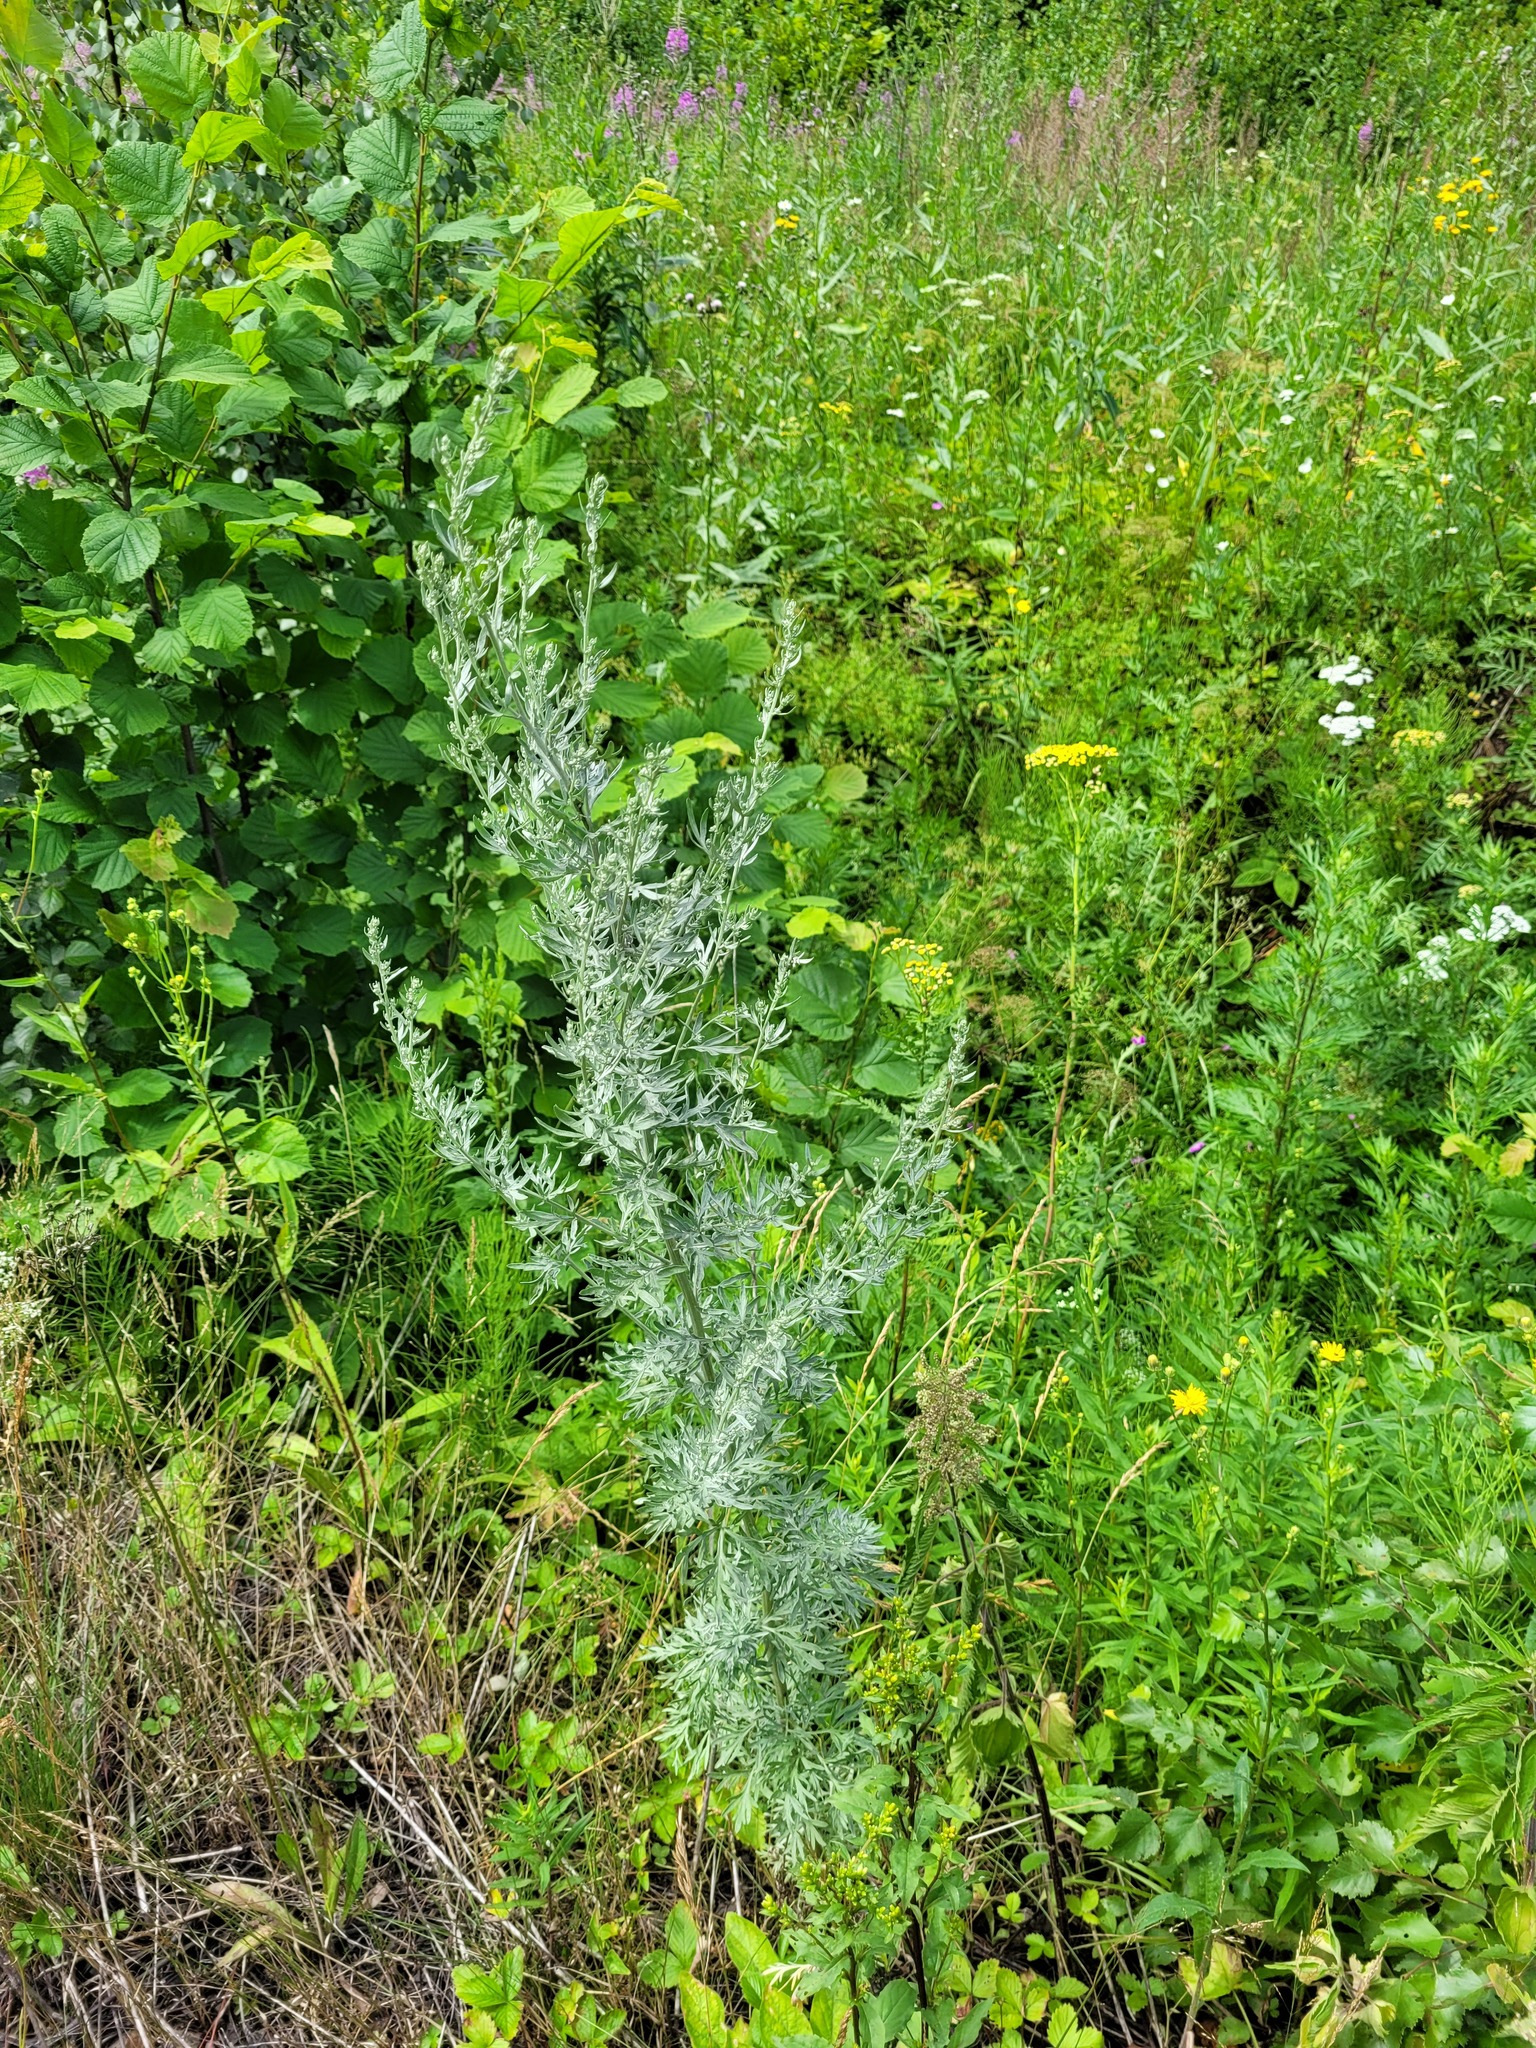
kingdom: Plantae
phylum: Tracheophyta
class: Magnoliopsida
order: Asterales
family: Asteraceae
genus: Artemisia
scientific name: Artemisia absinthium
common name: Wormwood
